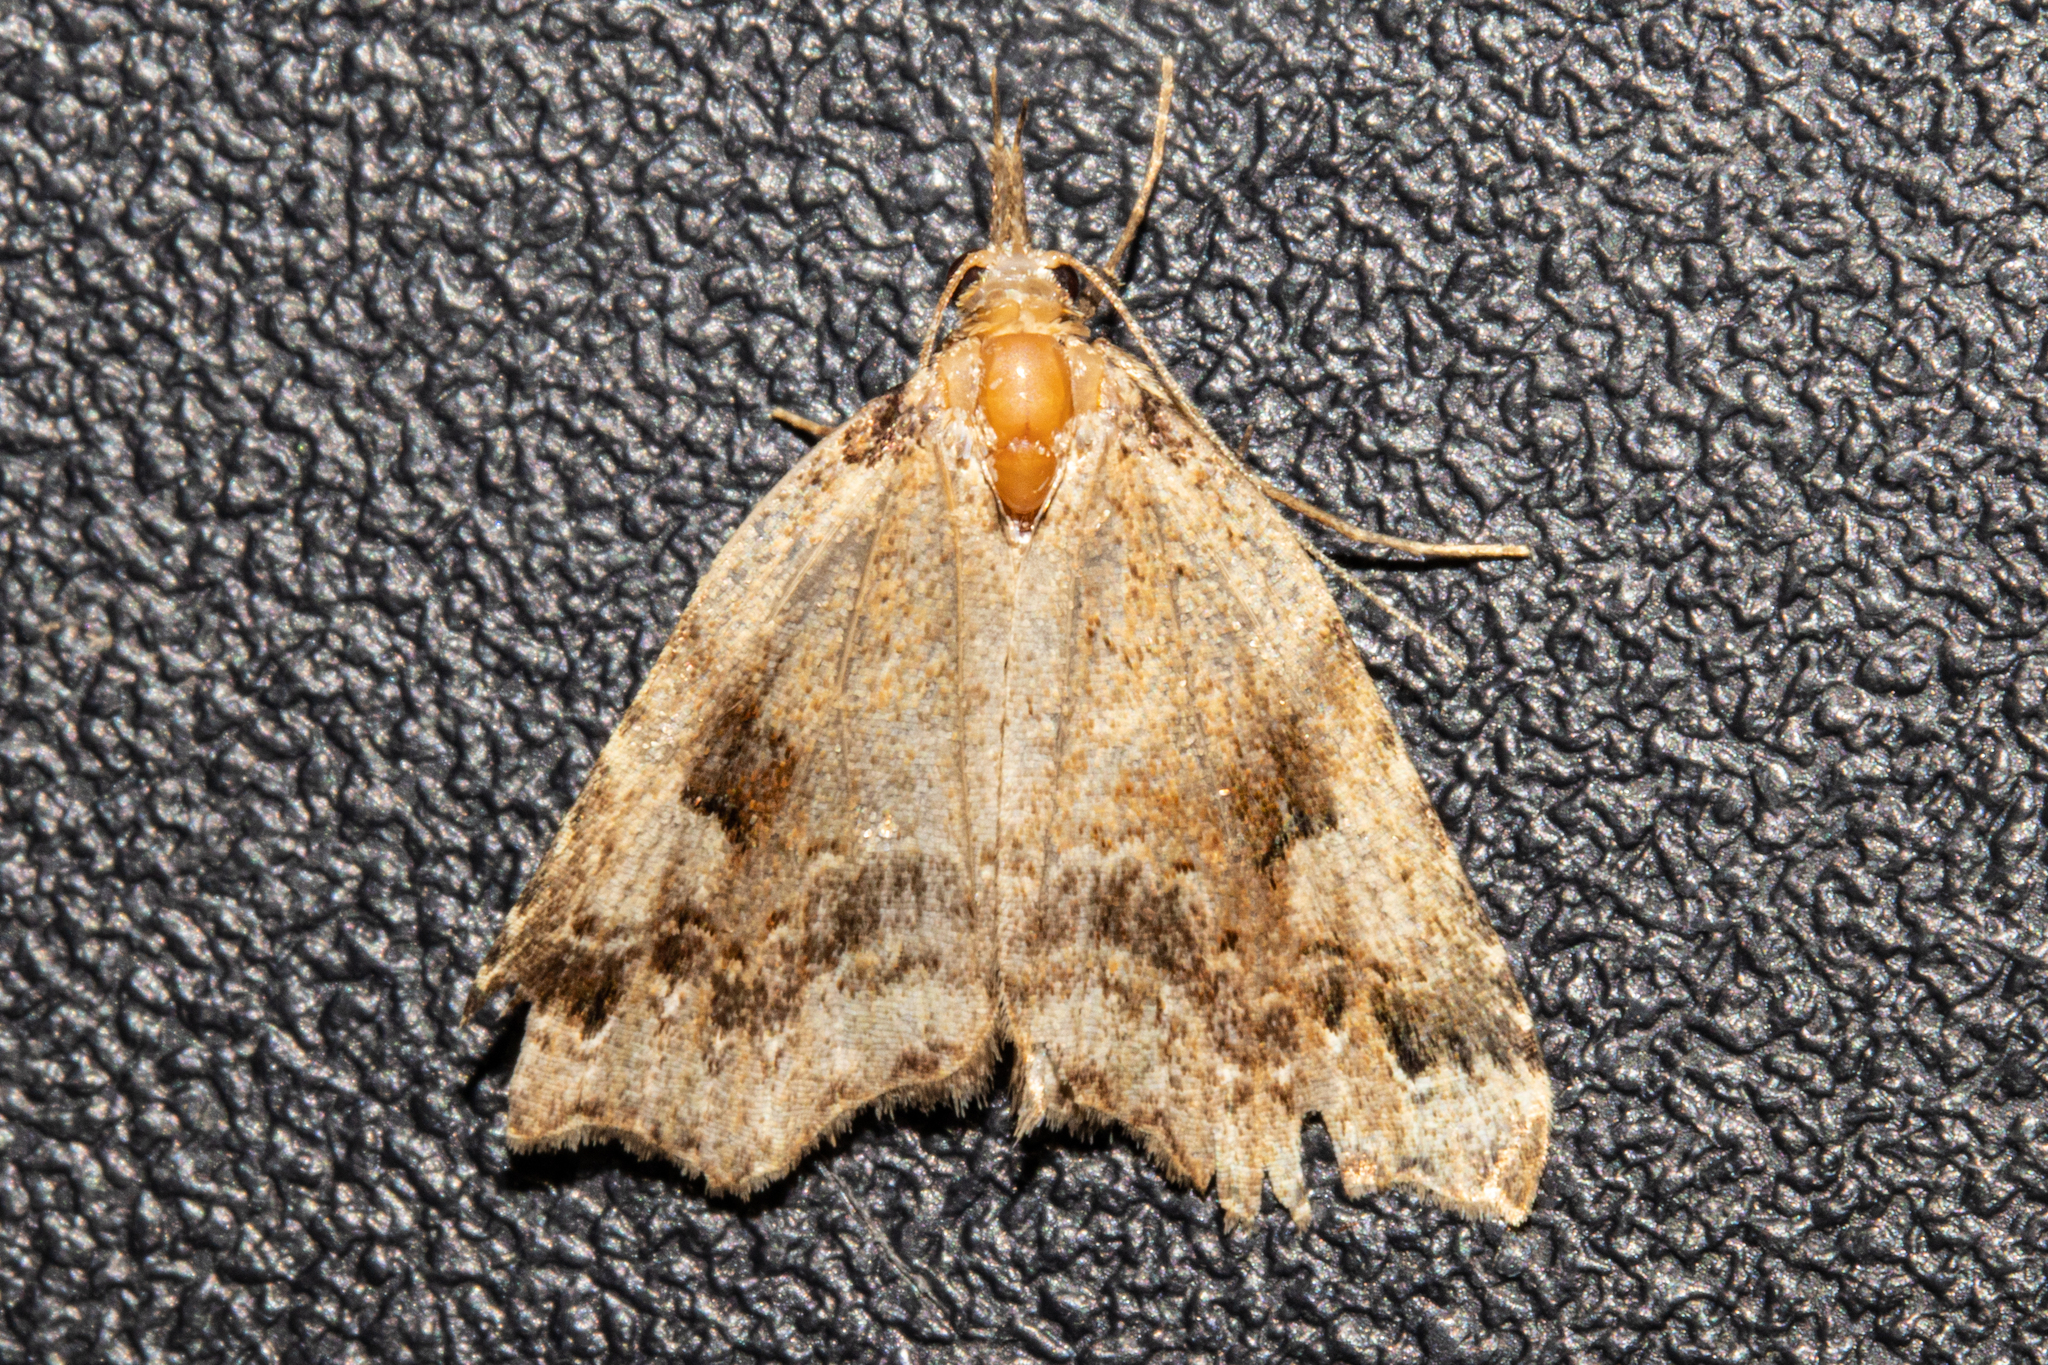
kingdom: Animalia
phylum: Arthropoda
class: Insecta
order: Lepidoptera
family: Erebidae
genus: Trigonistis
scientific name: Trigonistis
